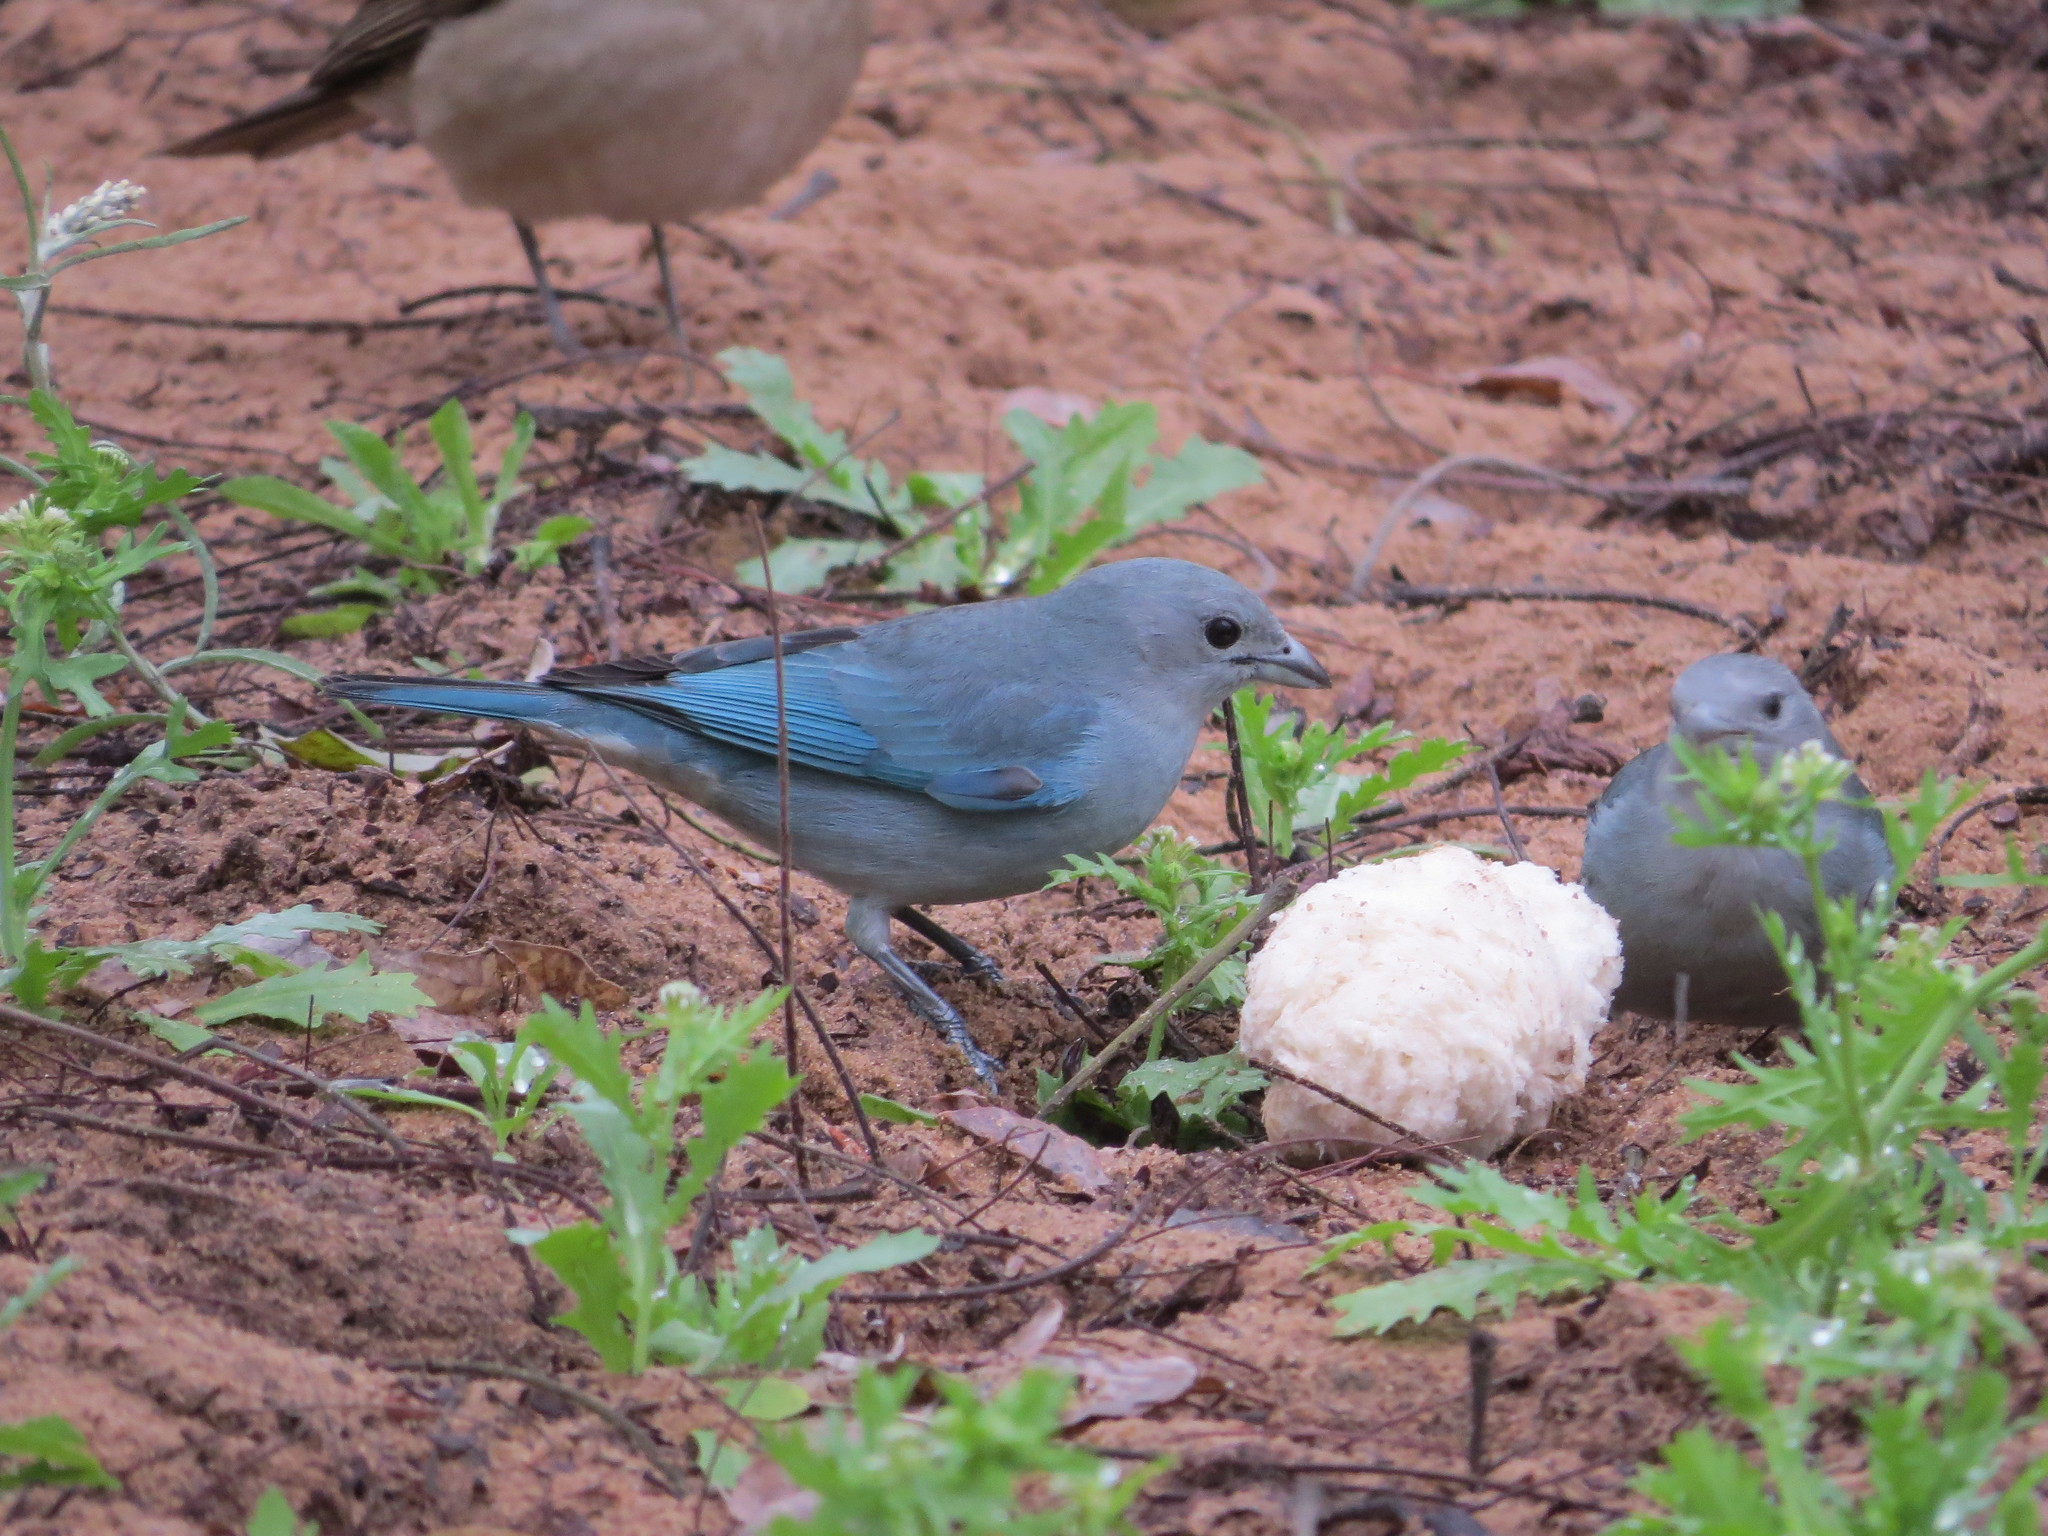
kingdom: Animalia
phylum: Chordata
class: Aves
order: Passeriformes
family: Thraupidae
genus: Thraupis
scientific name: Thraupis sayaca
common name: Sayaca tanager
